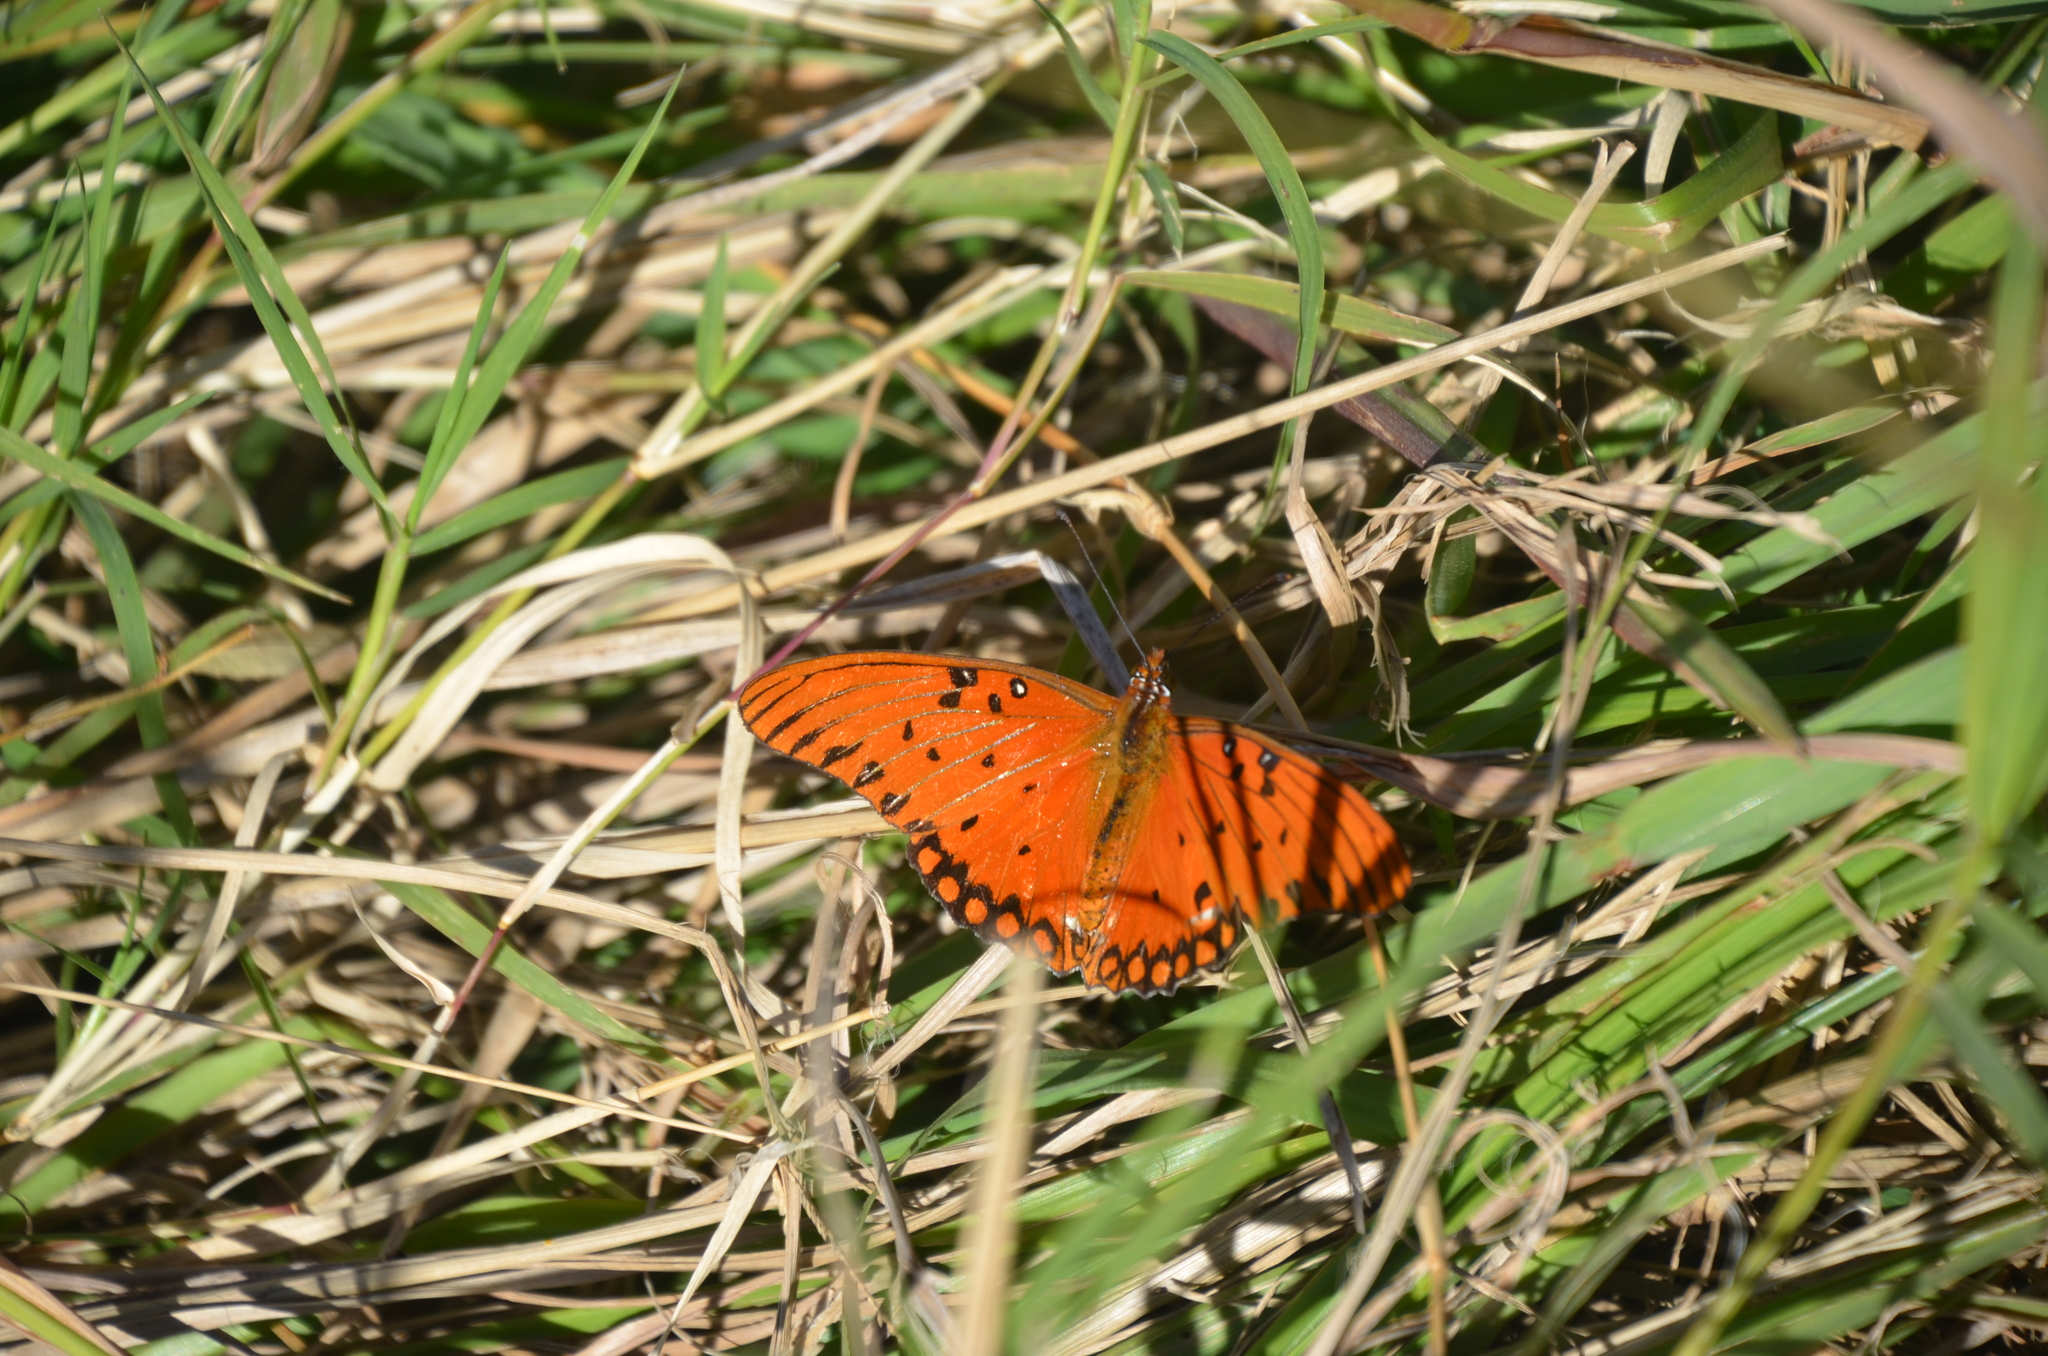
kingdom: Animalia
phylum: Arthropoda
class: Insecta
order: Lepidoptera
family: Nymphalidae
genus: Dione
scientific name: Dione vanillae
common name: Gulf fritillary
